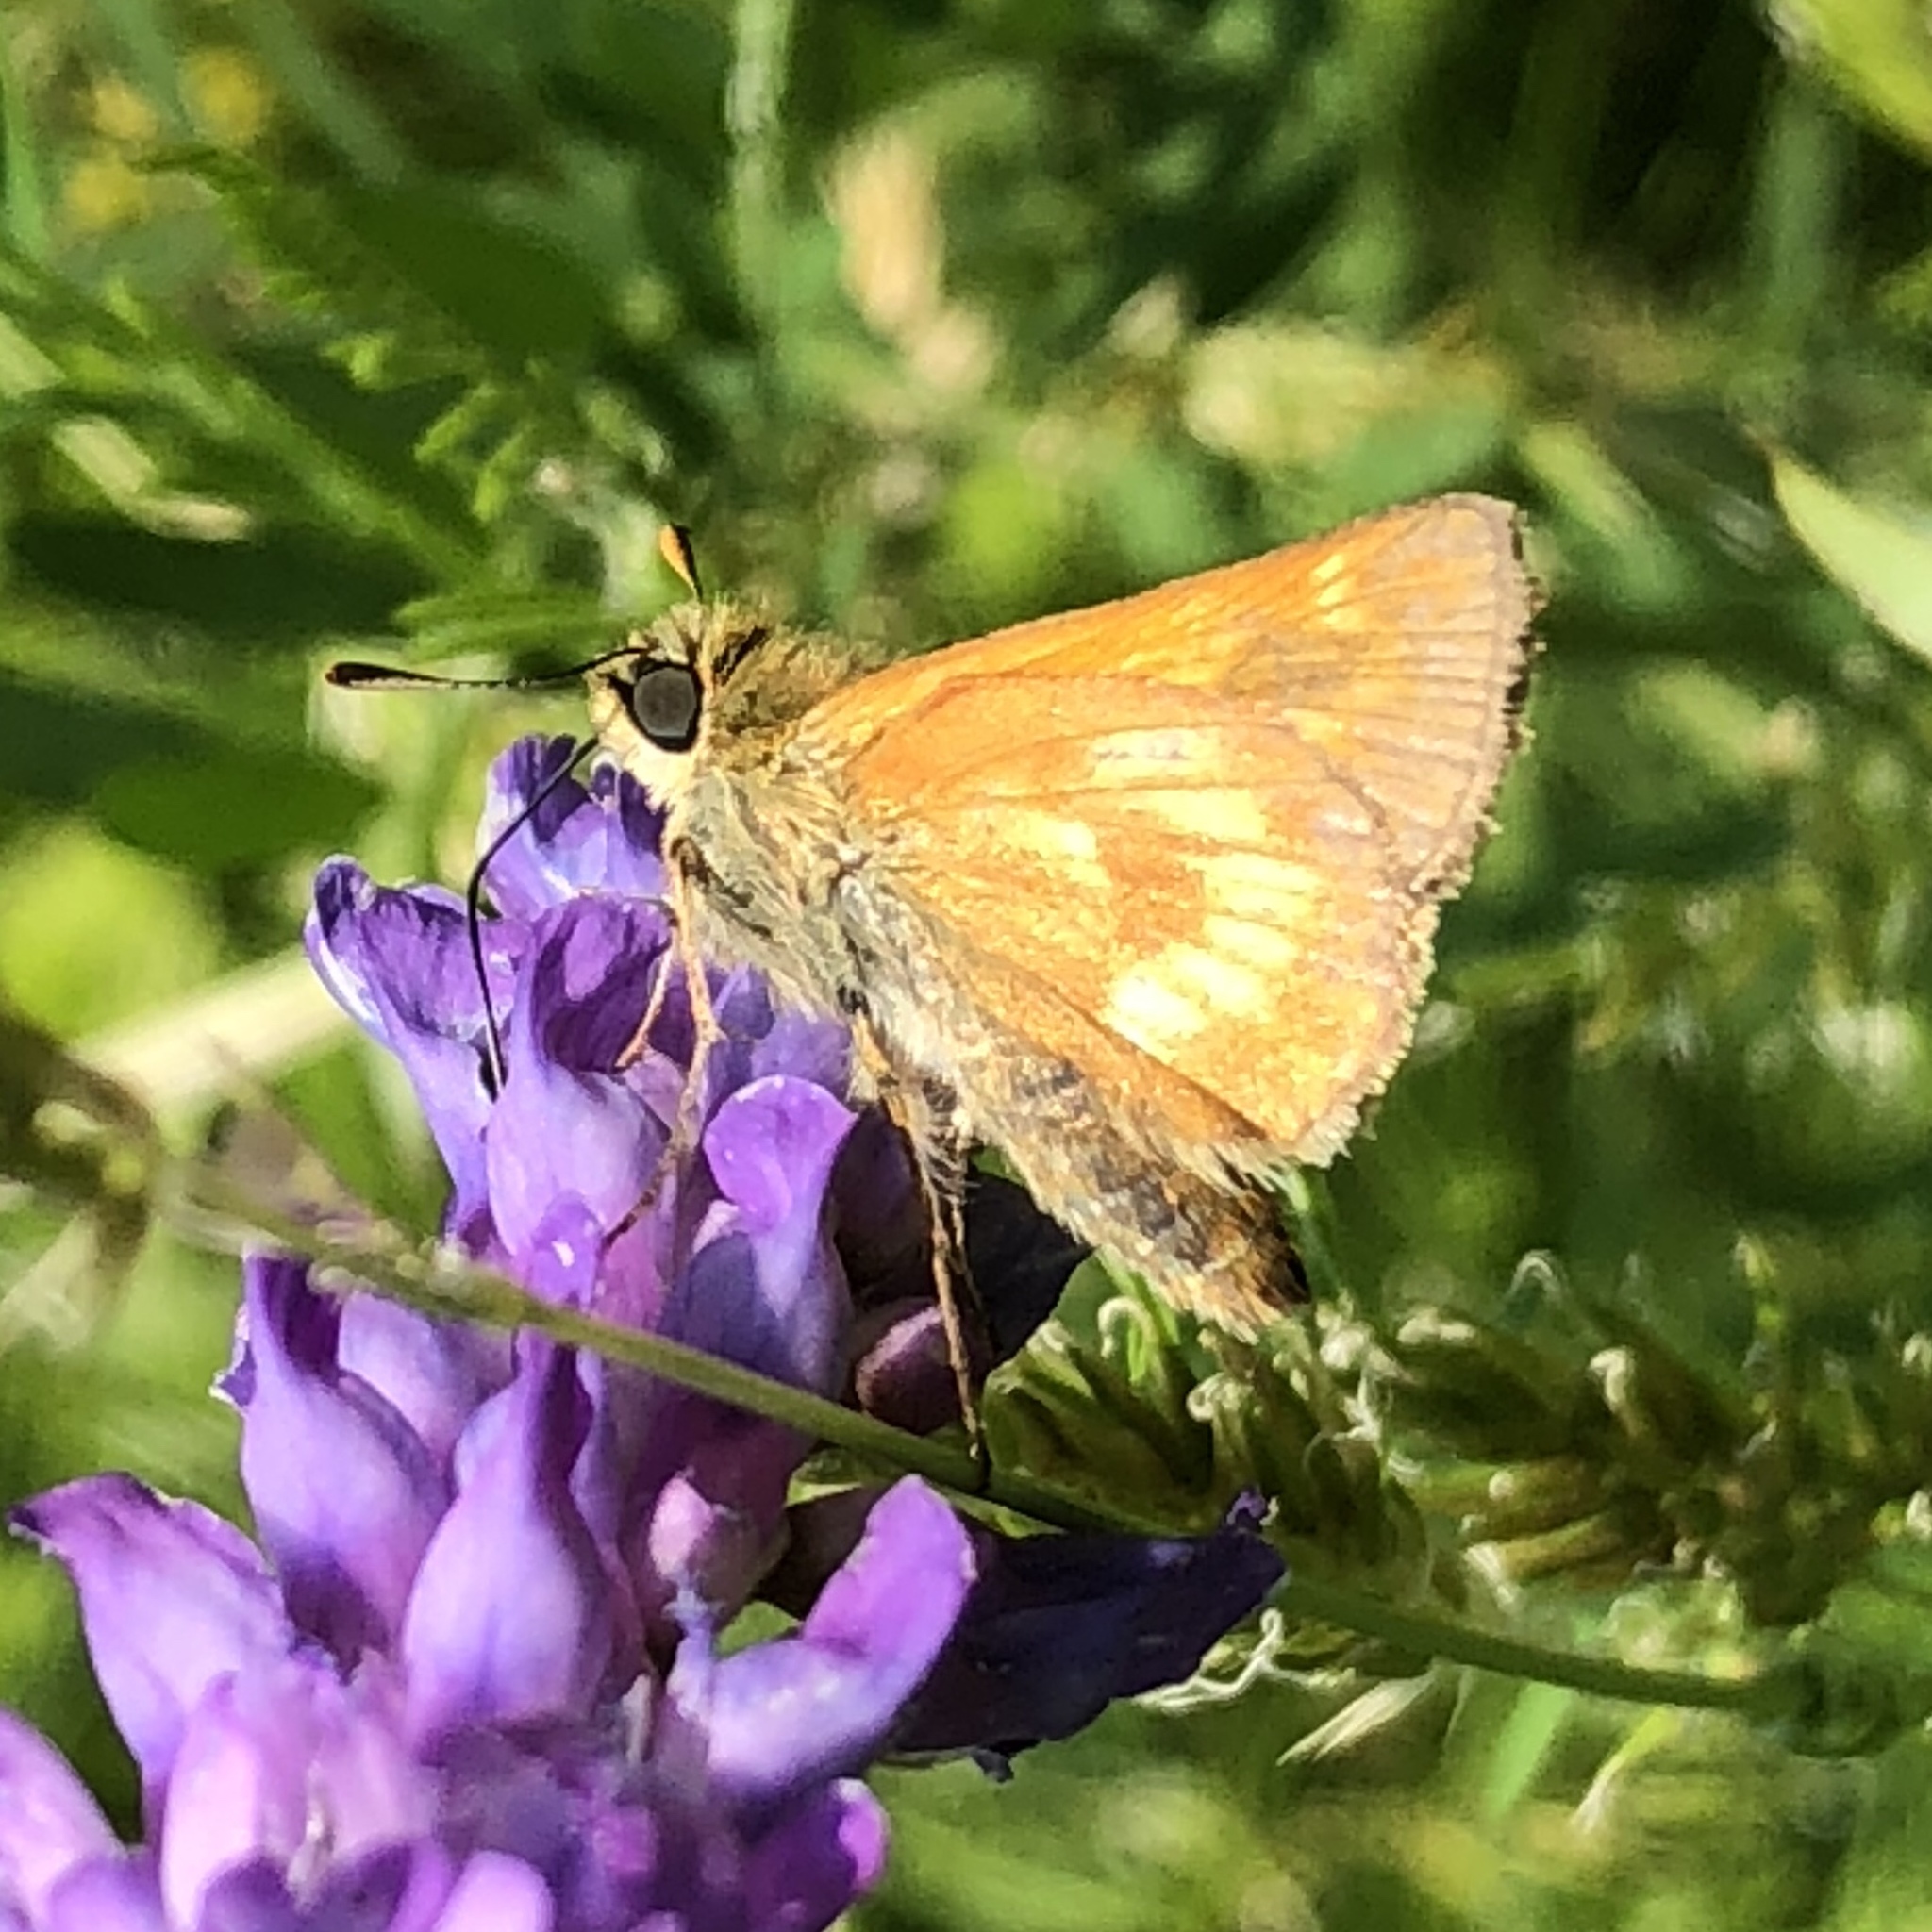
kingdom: Animalia
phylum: Arthropoda
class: Insecta
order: Lepidoptera
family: Hesperiidae
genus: Polites
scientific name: Polites mystic
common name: Long dash
